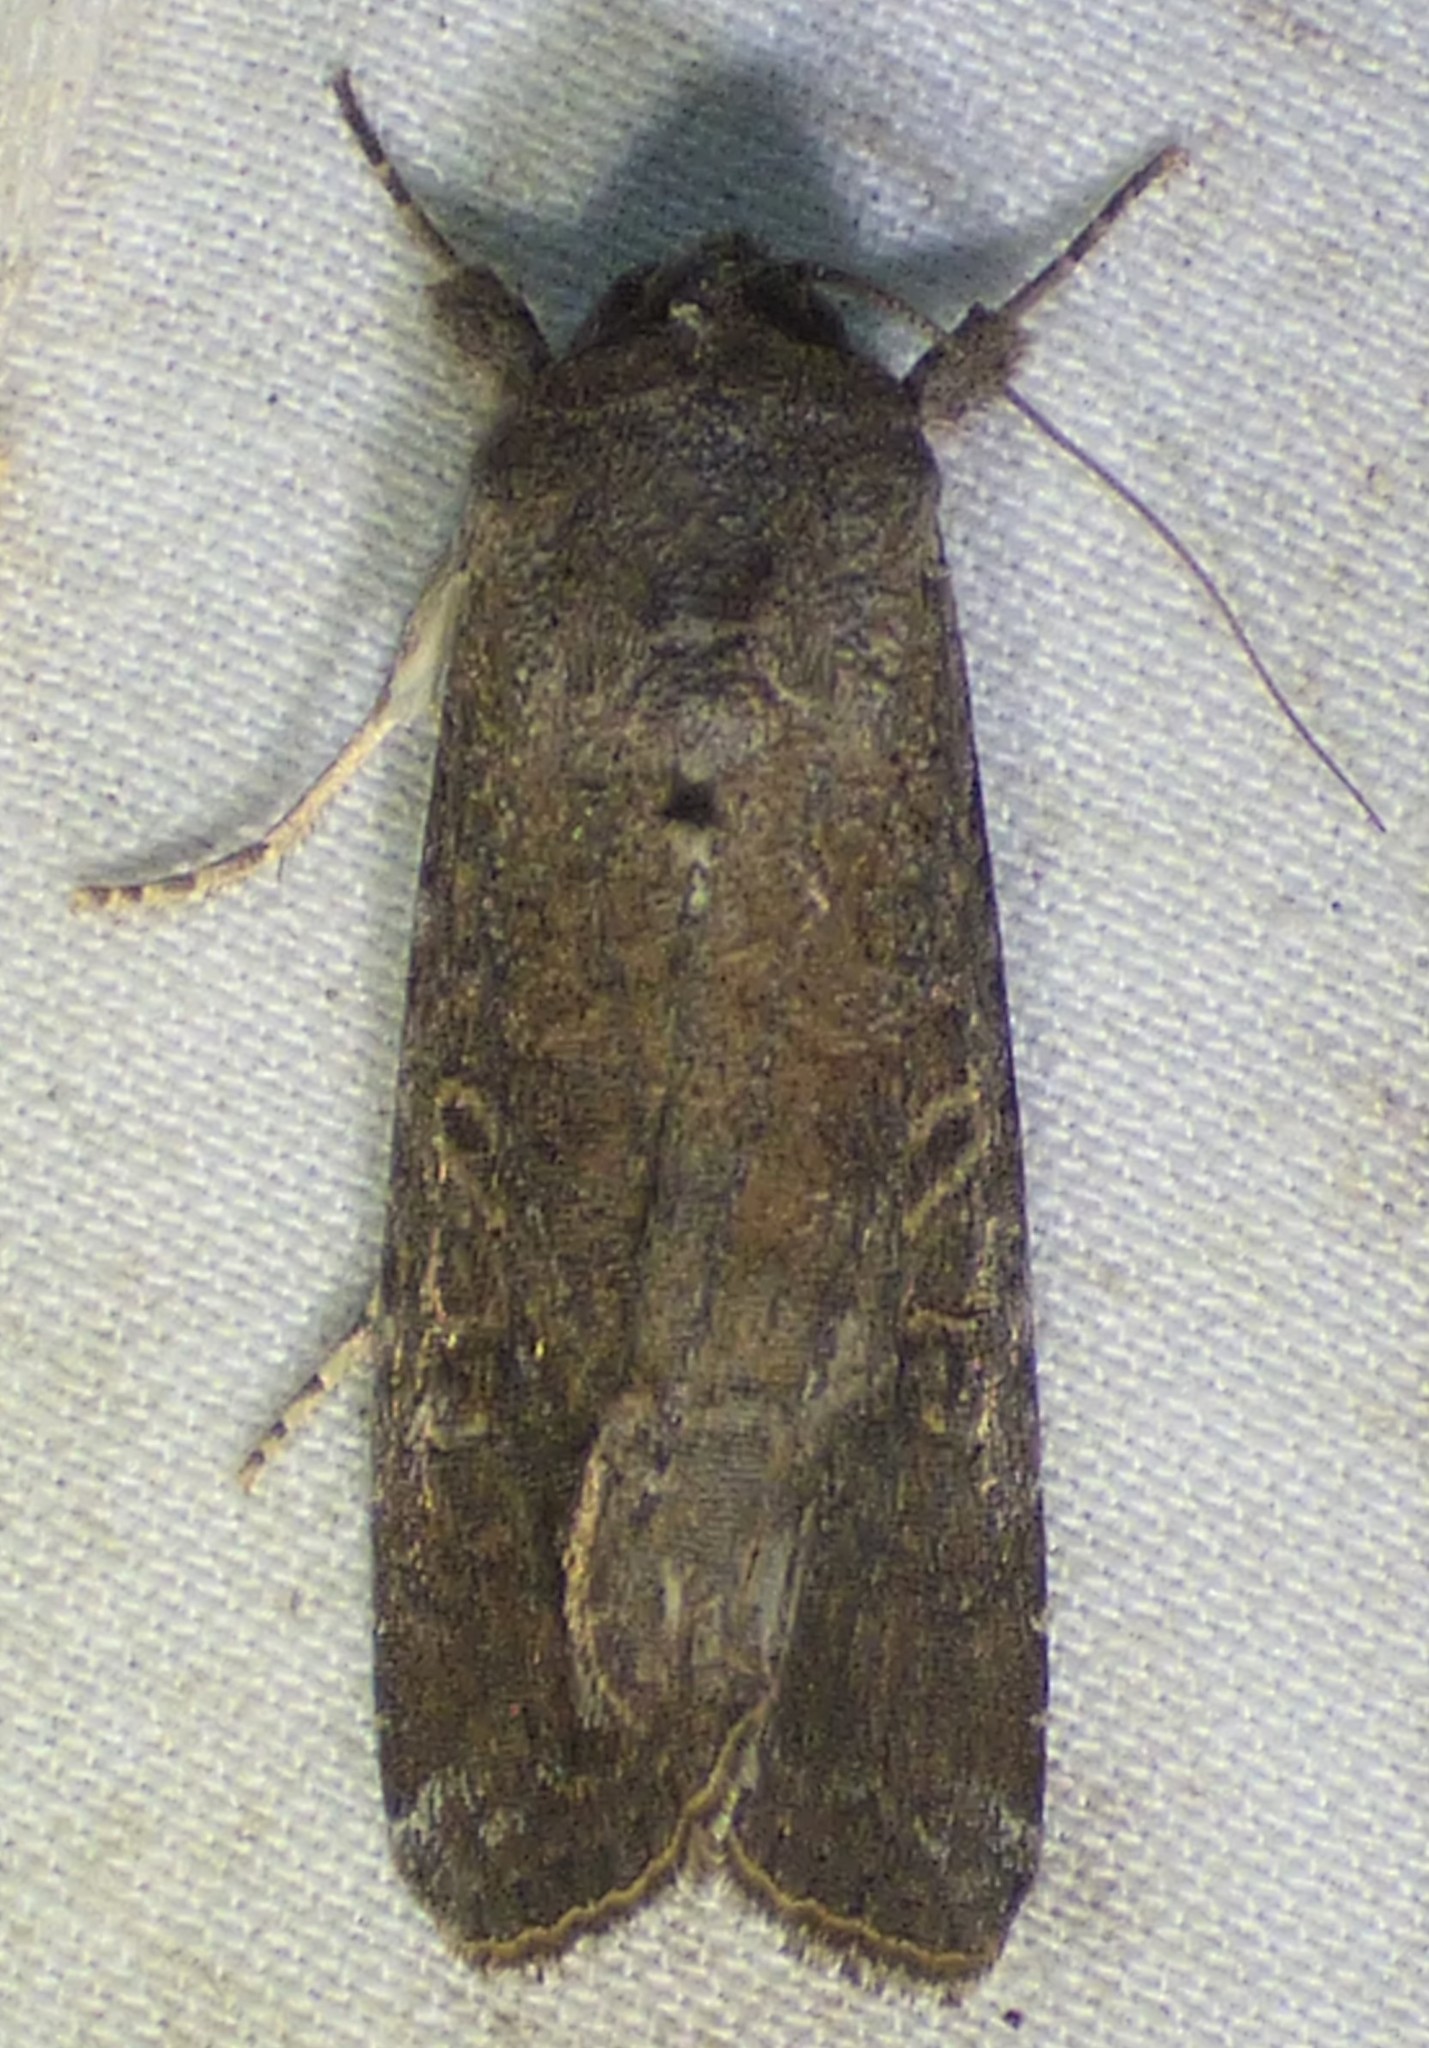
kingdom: Animalia
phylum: Arthropoda
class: Insecta
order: Lepidoptera
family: Noctuidae
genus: Spodoptera
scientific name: Spodoptera frugiperda
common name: Fall armyworm
